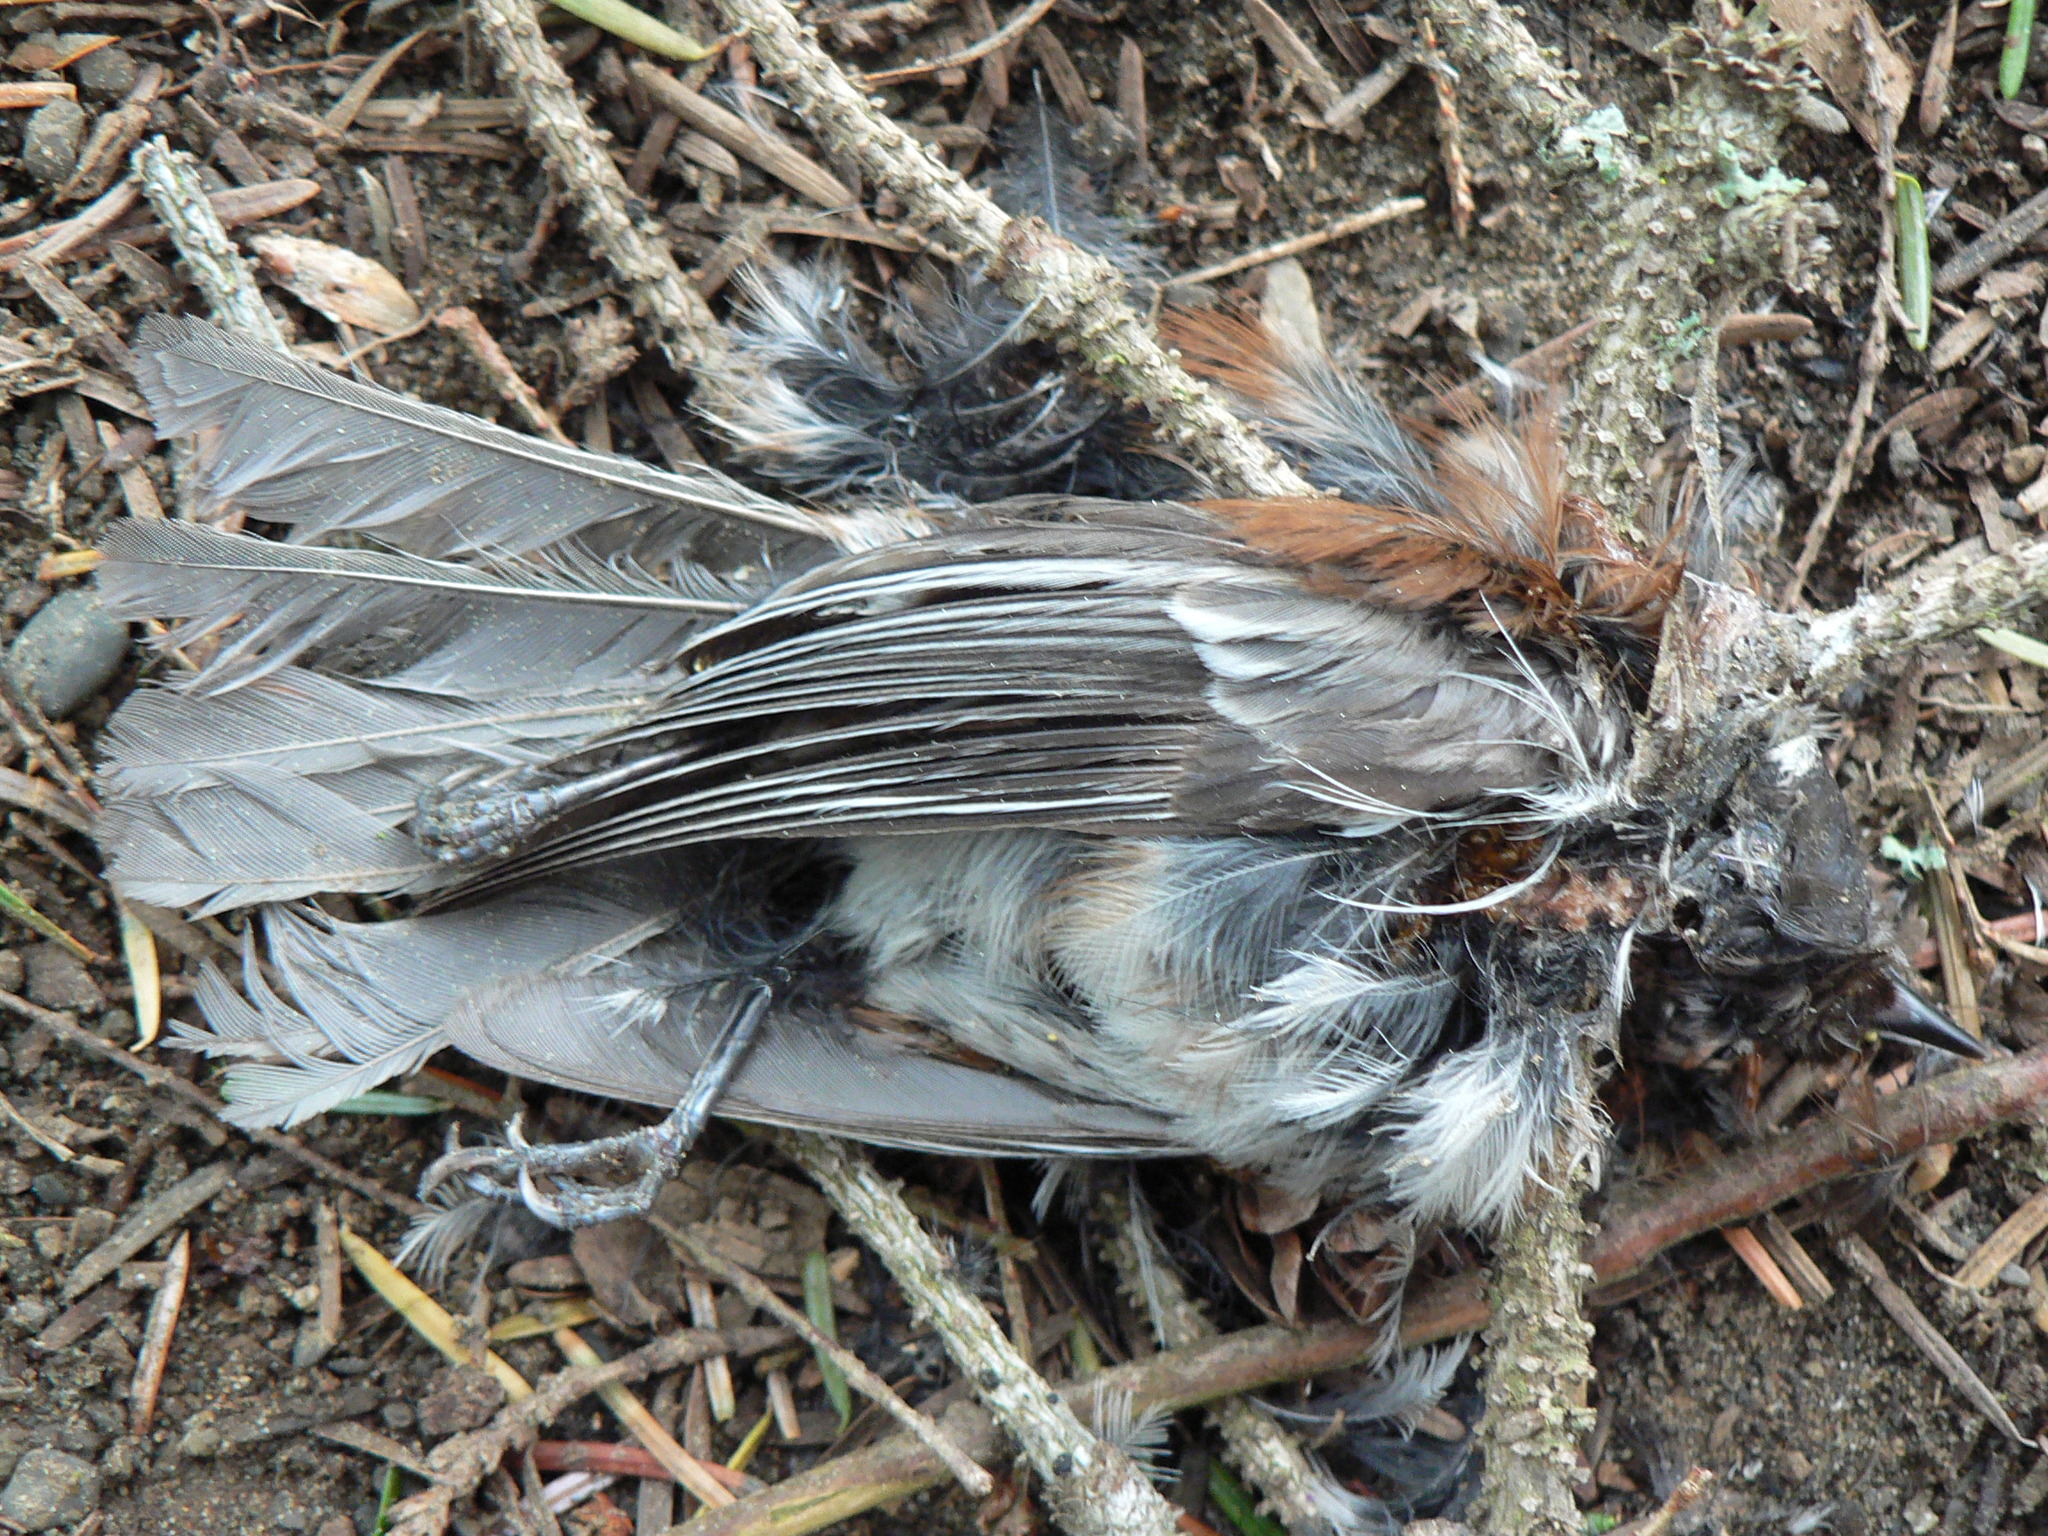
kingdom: Animalia
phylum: Chordata
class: Aves
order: Passeriformes
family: Paridae
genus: Poecile
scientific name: Poecile rufescens
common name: Chestnut-backed chickadee
